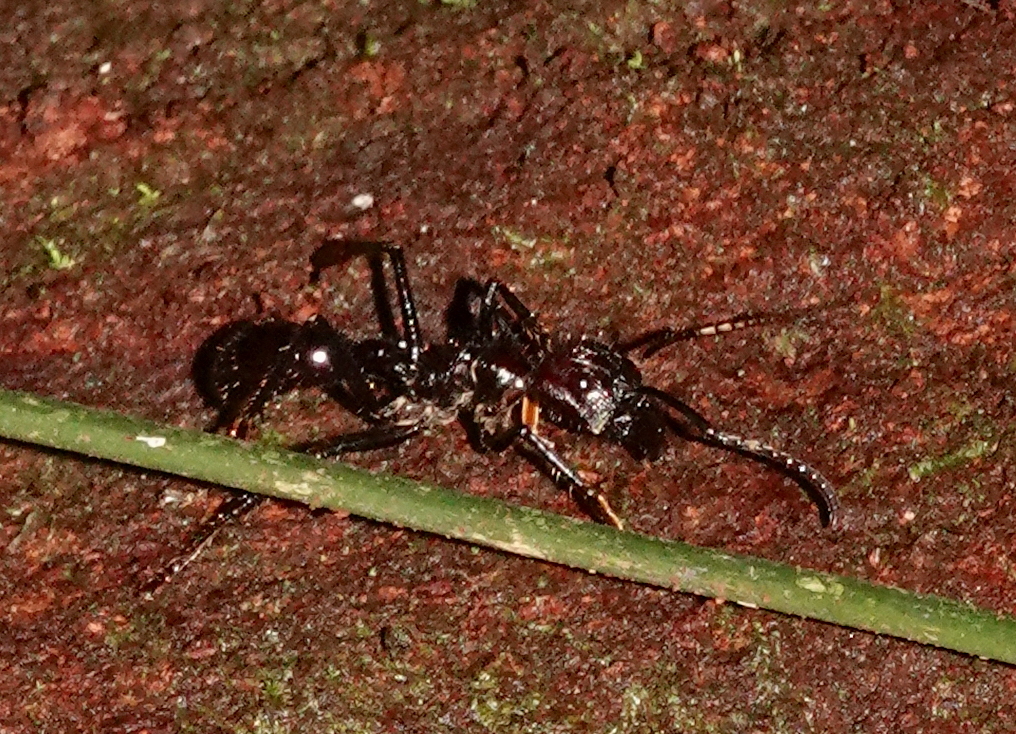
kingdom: Animalia
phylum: Arthropoda
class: Insecta
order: Hymenoptera
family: Formicidae
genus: Paraponera
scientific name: Paraponera clavata
